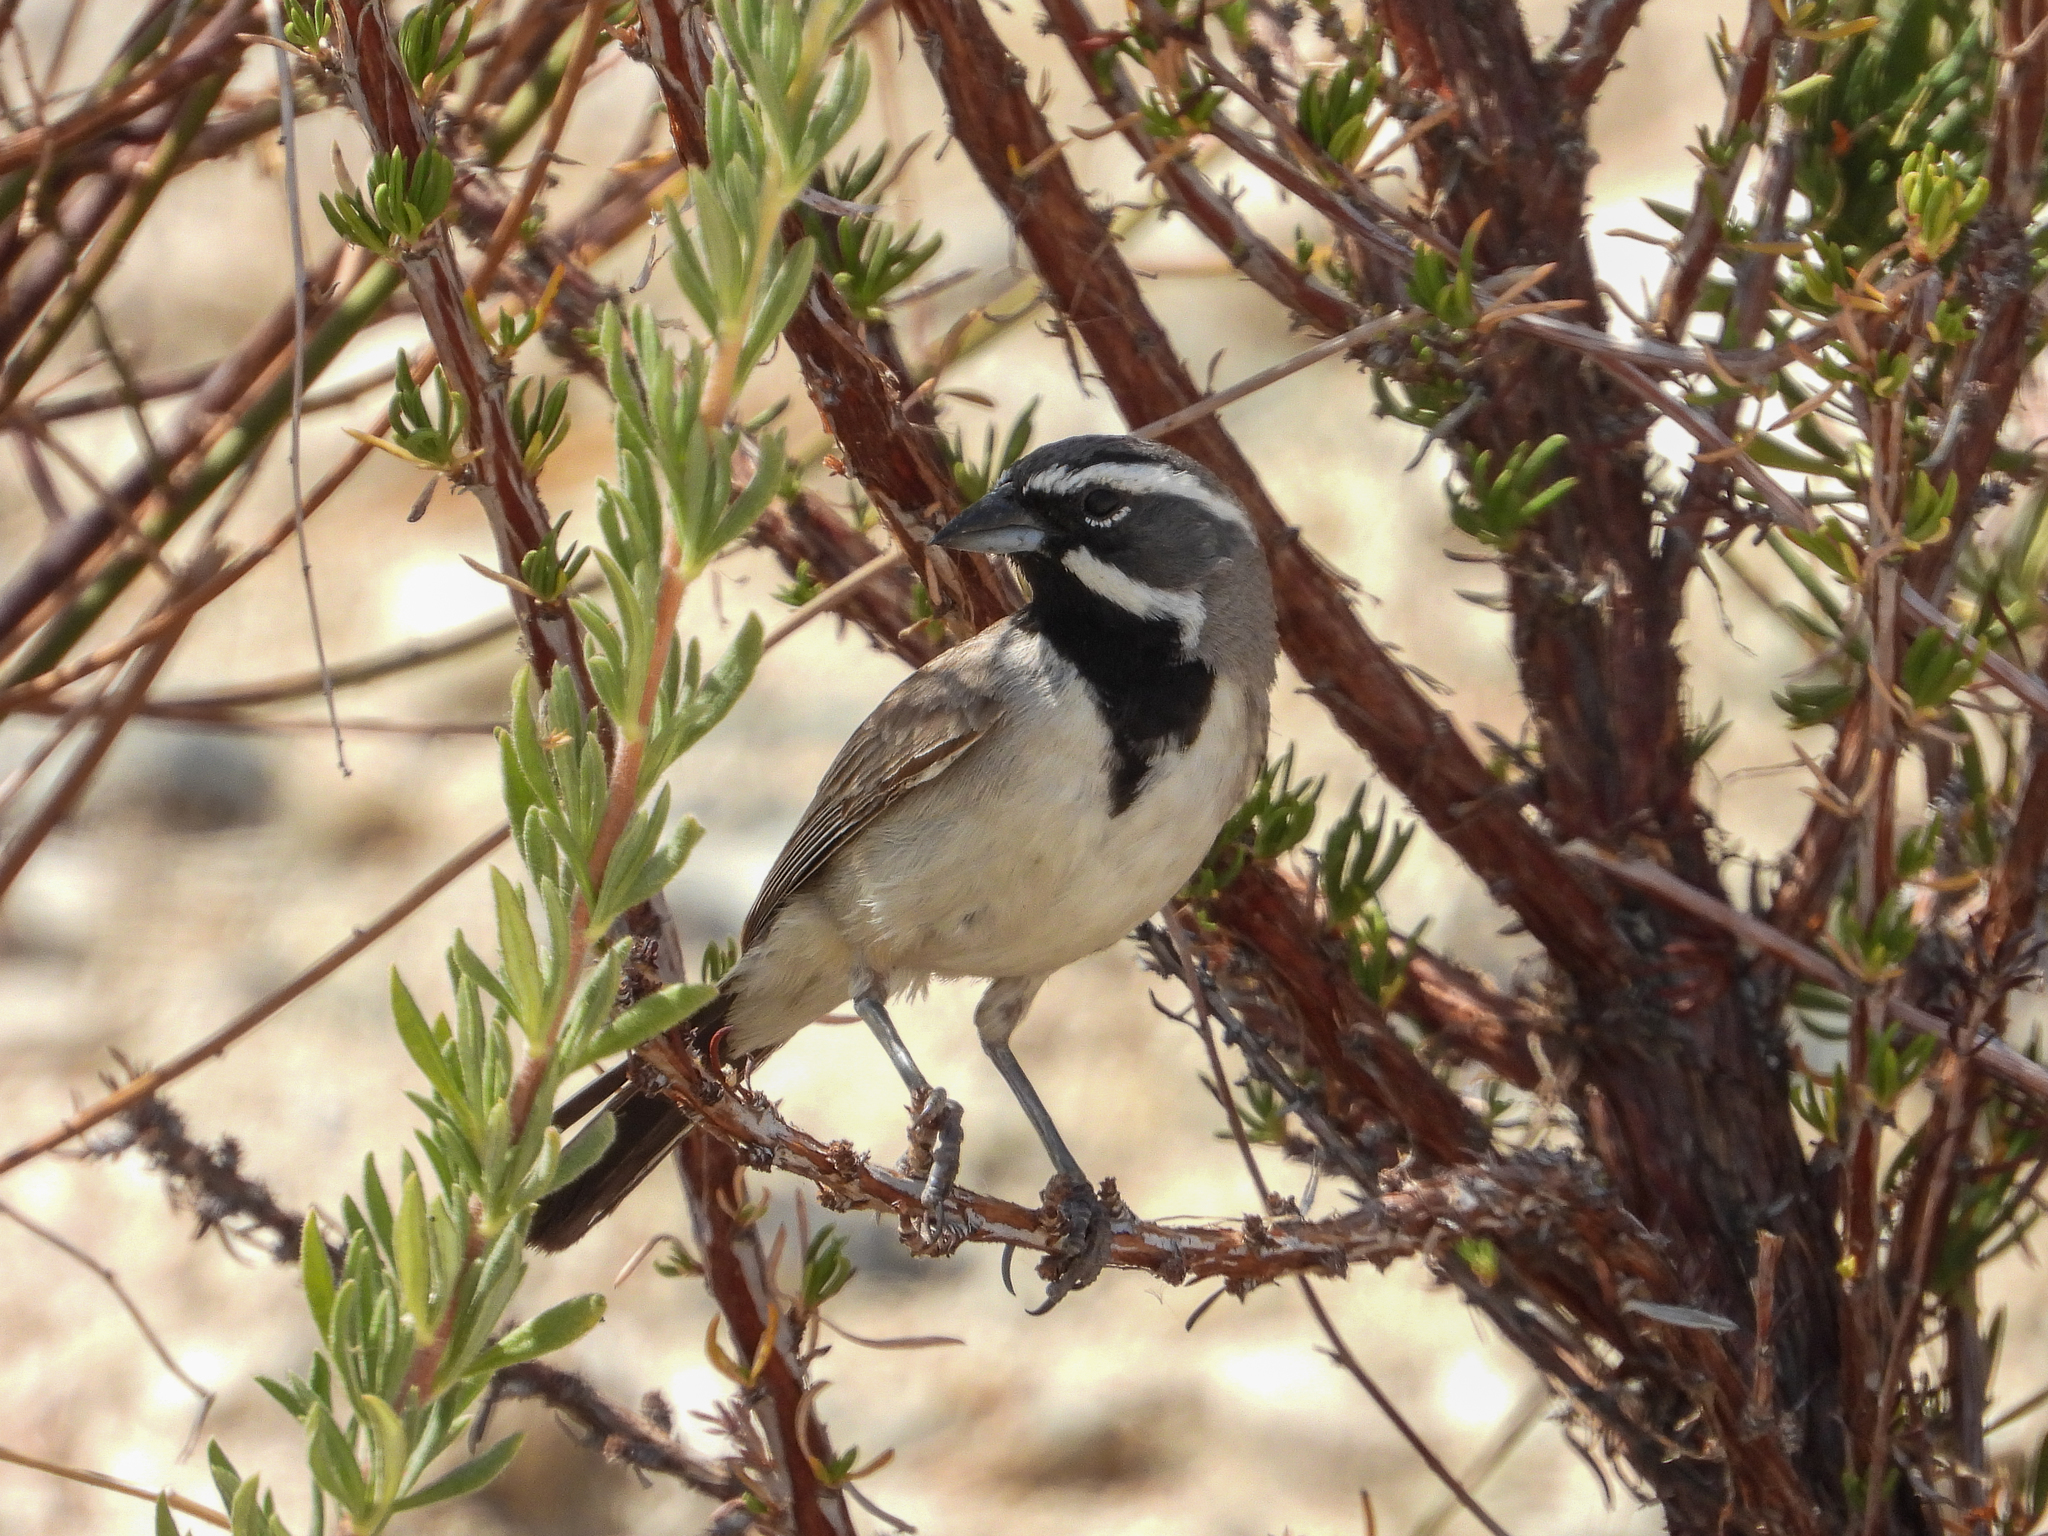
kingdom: Animalia
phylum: Chordata
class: Aves
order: Passeriformes
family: Passerellidae
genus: Amphispiza
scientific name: Amphispiza bilineata
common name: Black-throated sparrow
